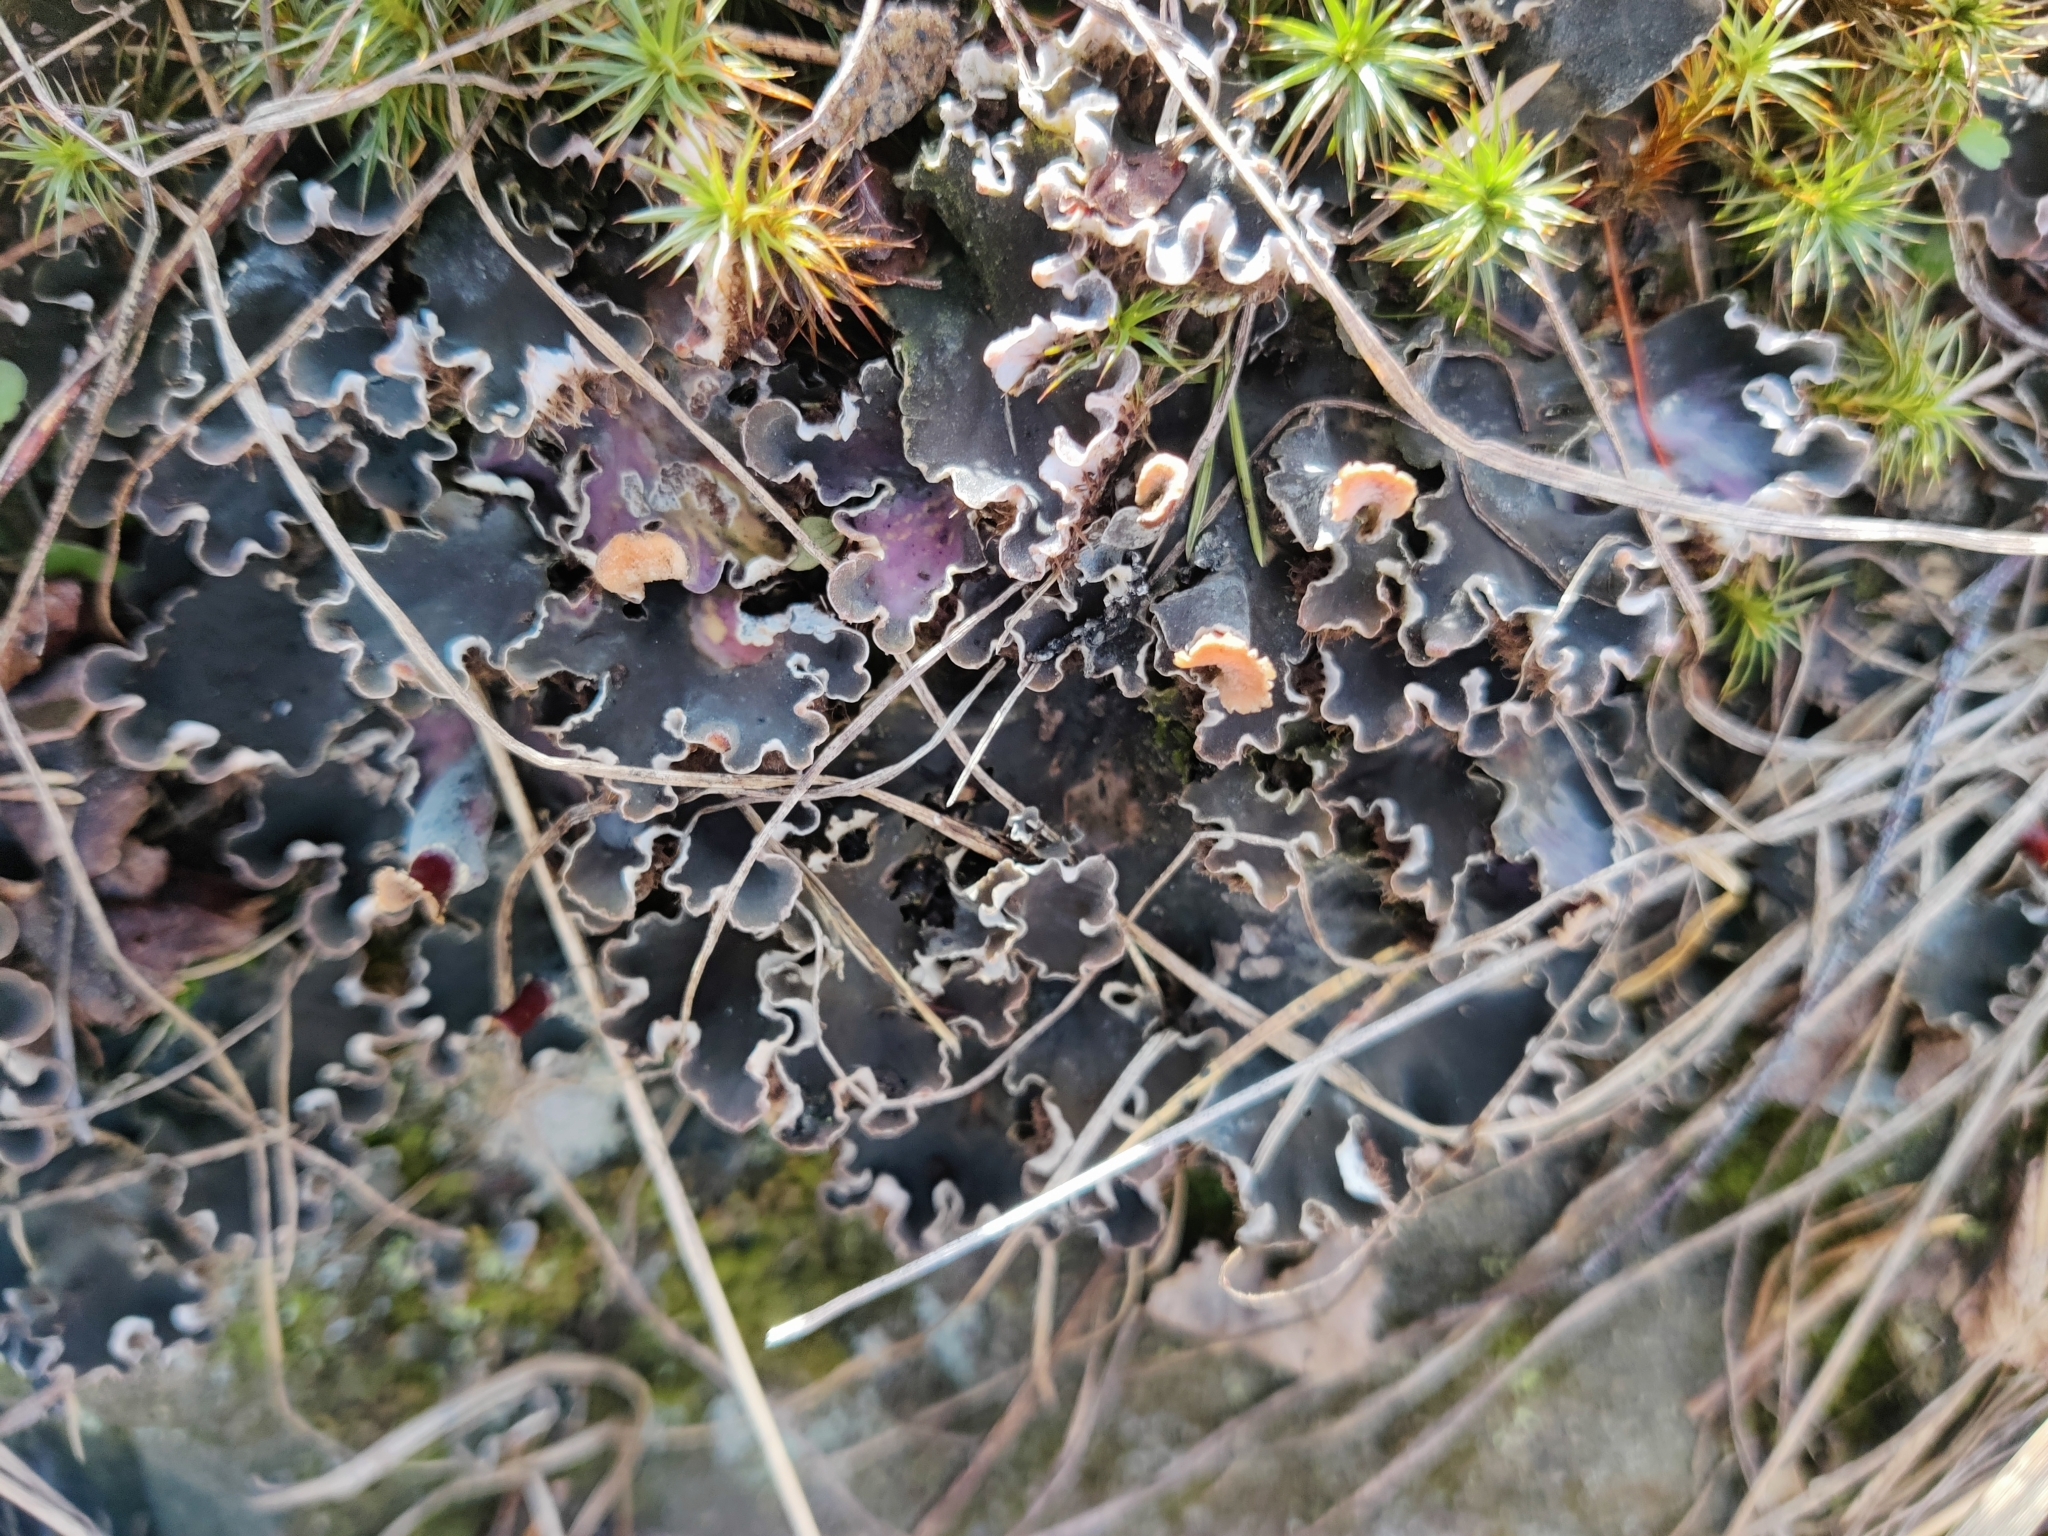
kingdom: Fungi
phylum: Ascomycota
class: Lecanoromycetes
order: Peltigerales
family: Peltigeraceae
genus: Peltigera
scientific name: Peltigera rufescens
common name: Field dog lichen
